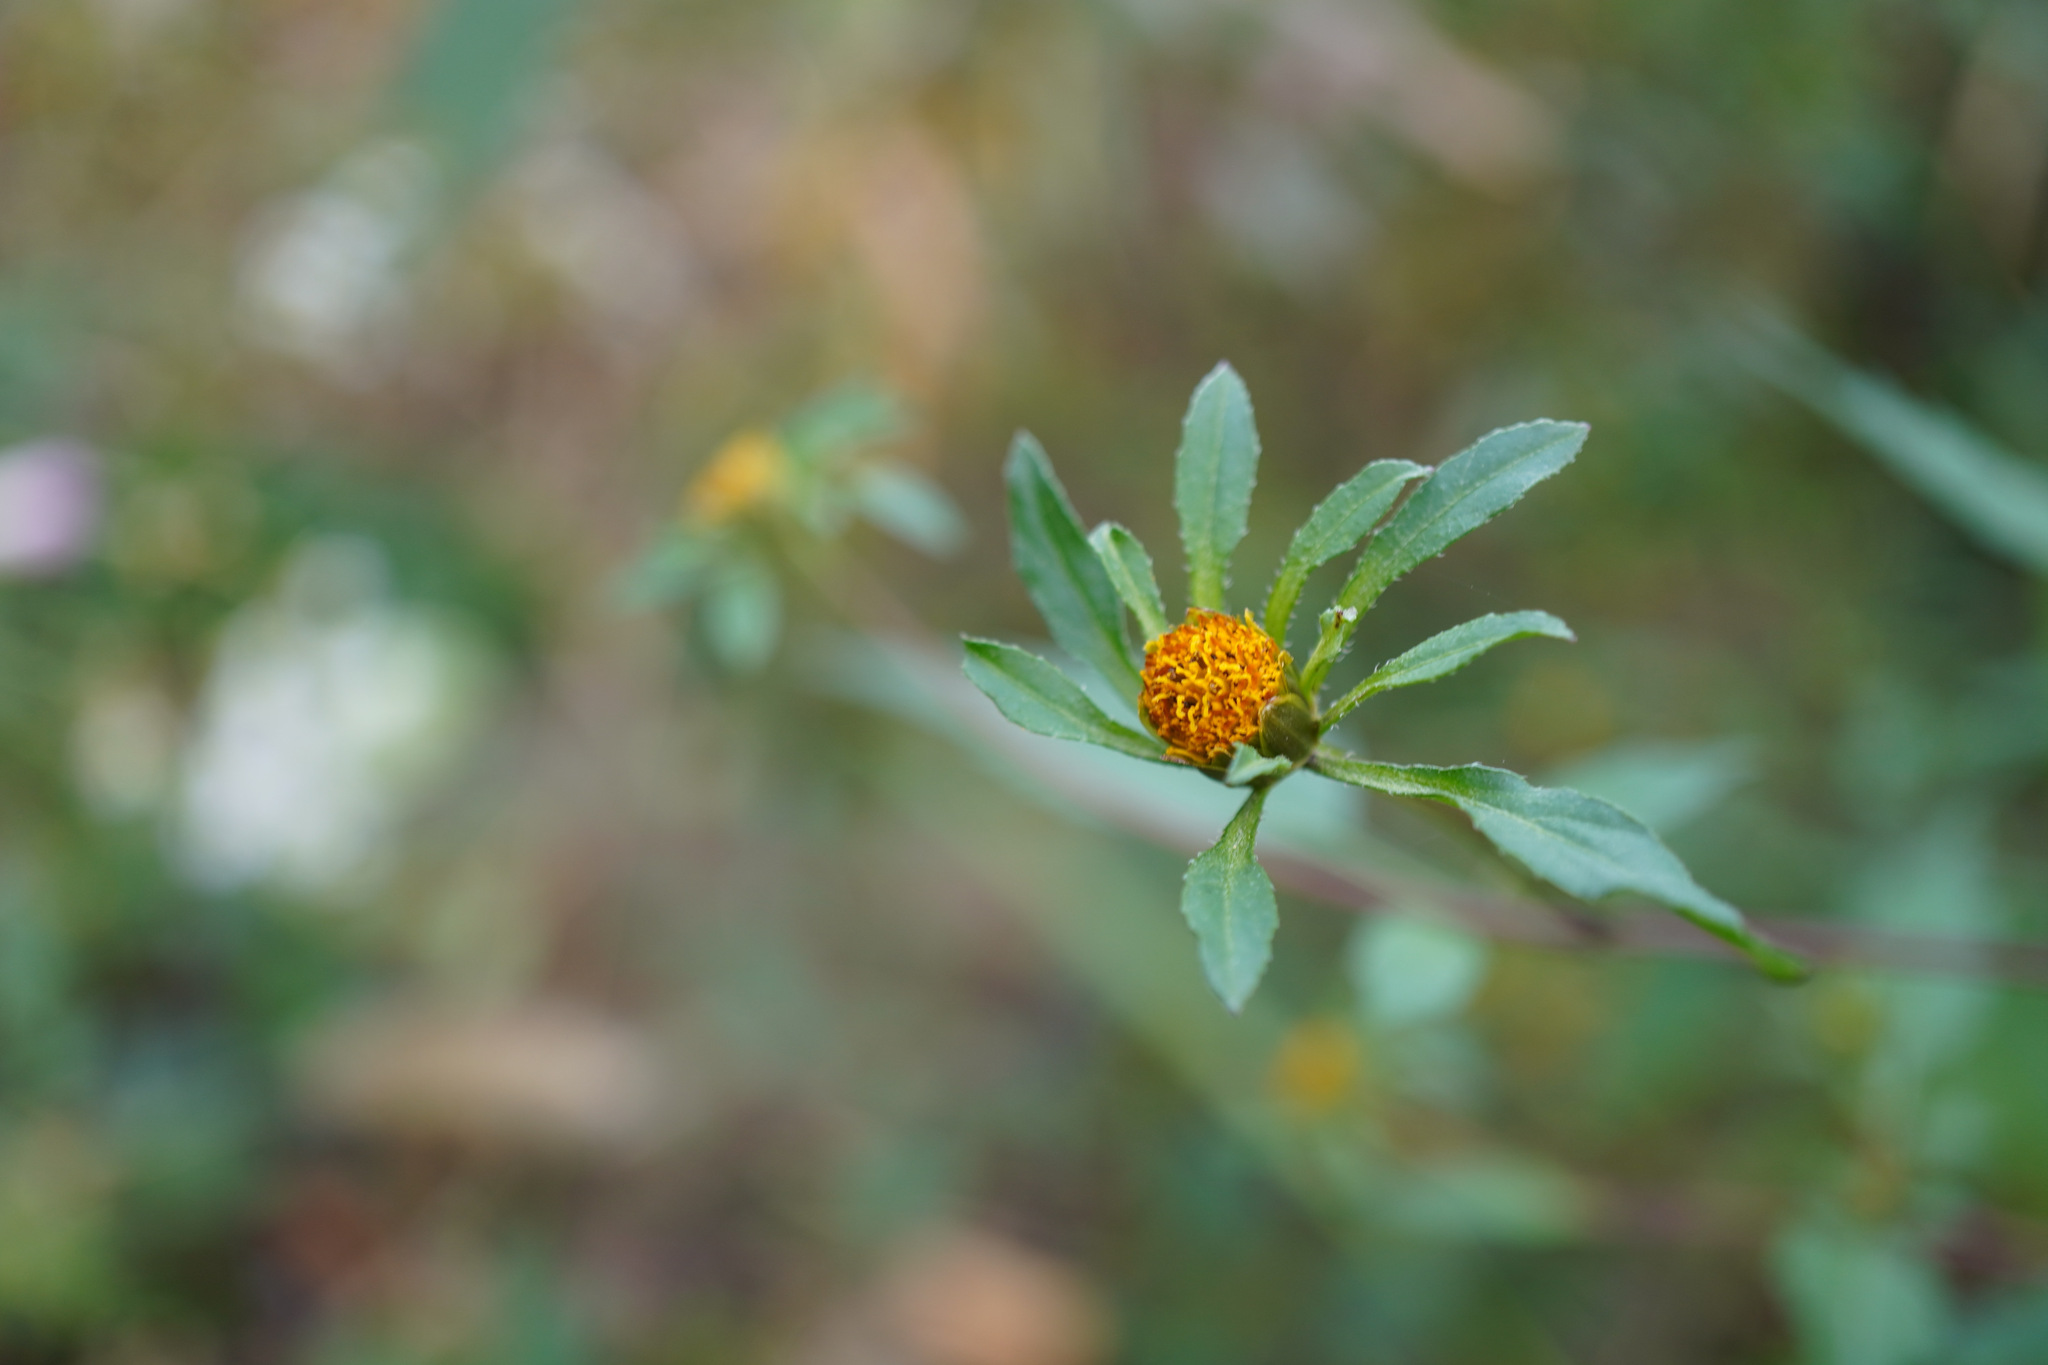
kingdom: Plantae
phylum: Tracheophyta
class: Magnoliopsida
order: Asterales
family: Asteraceae
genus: Bidens
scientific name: Bidens frondosa
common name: Beggarticks
